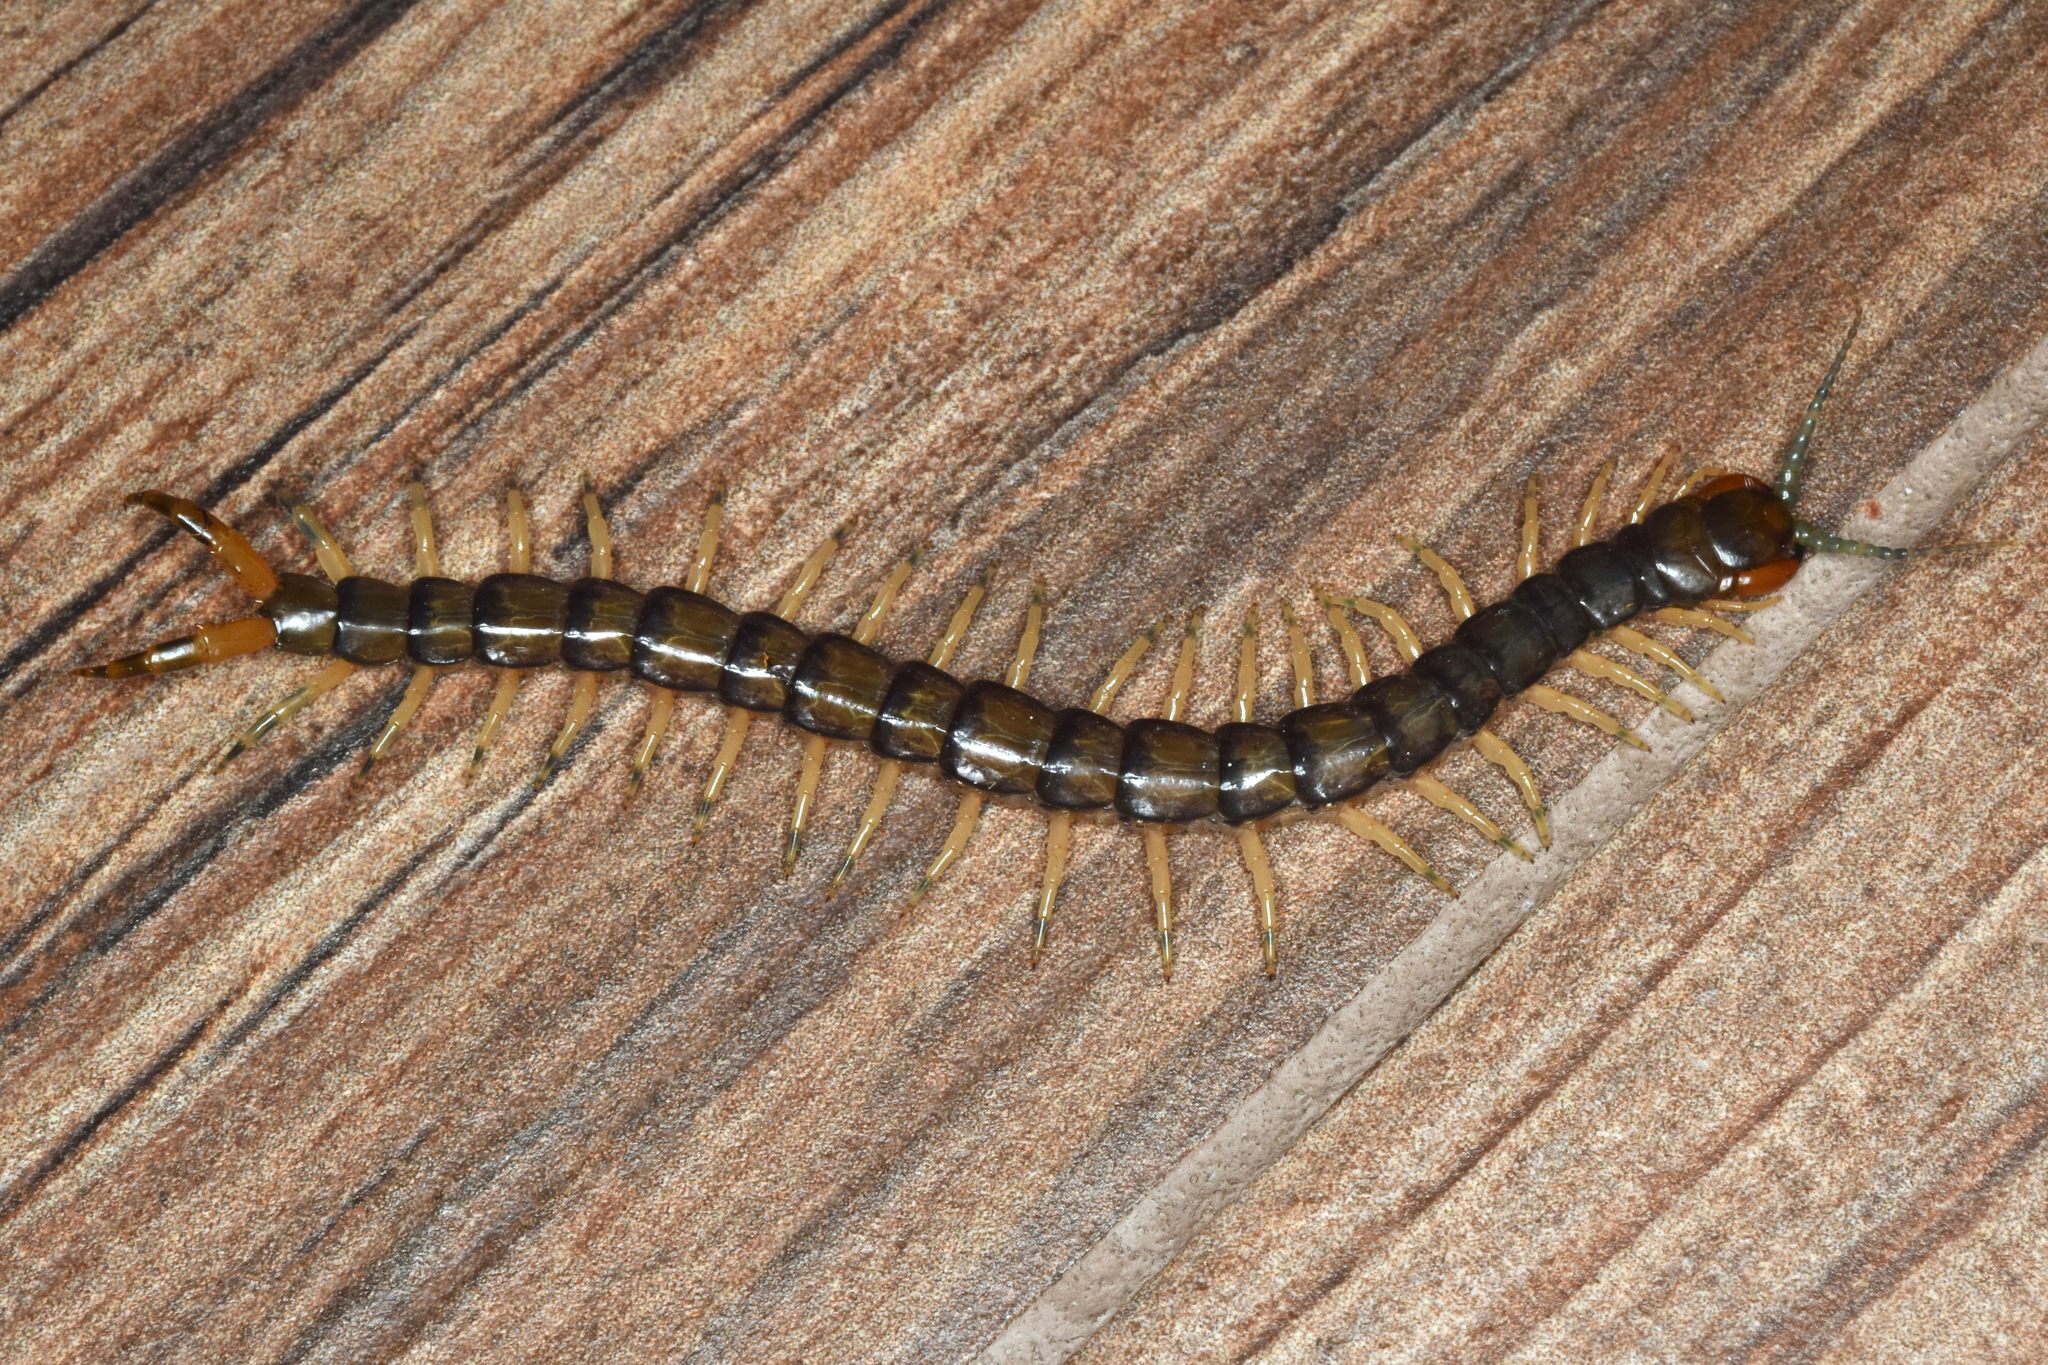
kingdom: Animalia
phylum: Arthropoda
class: Chilopoda
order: Scolopendromorpha
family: Scolopendridae
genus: Hemiscolopendra
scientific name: Hemiscolopendra marginata
